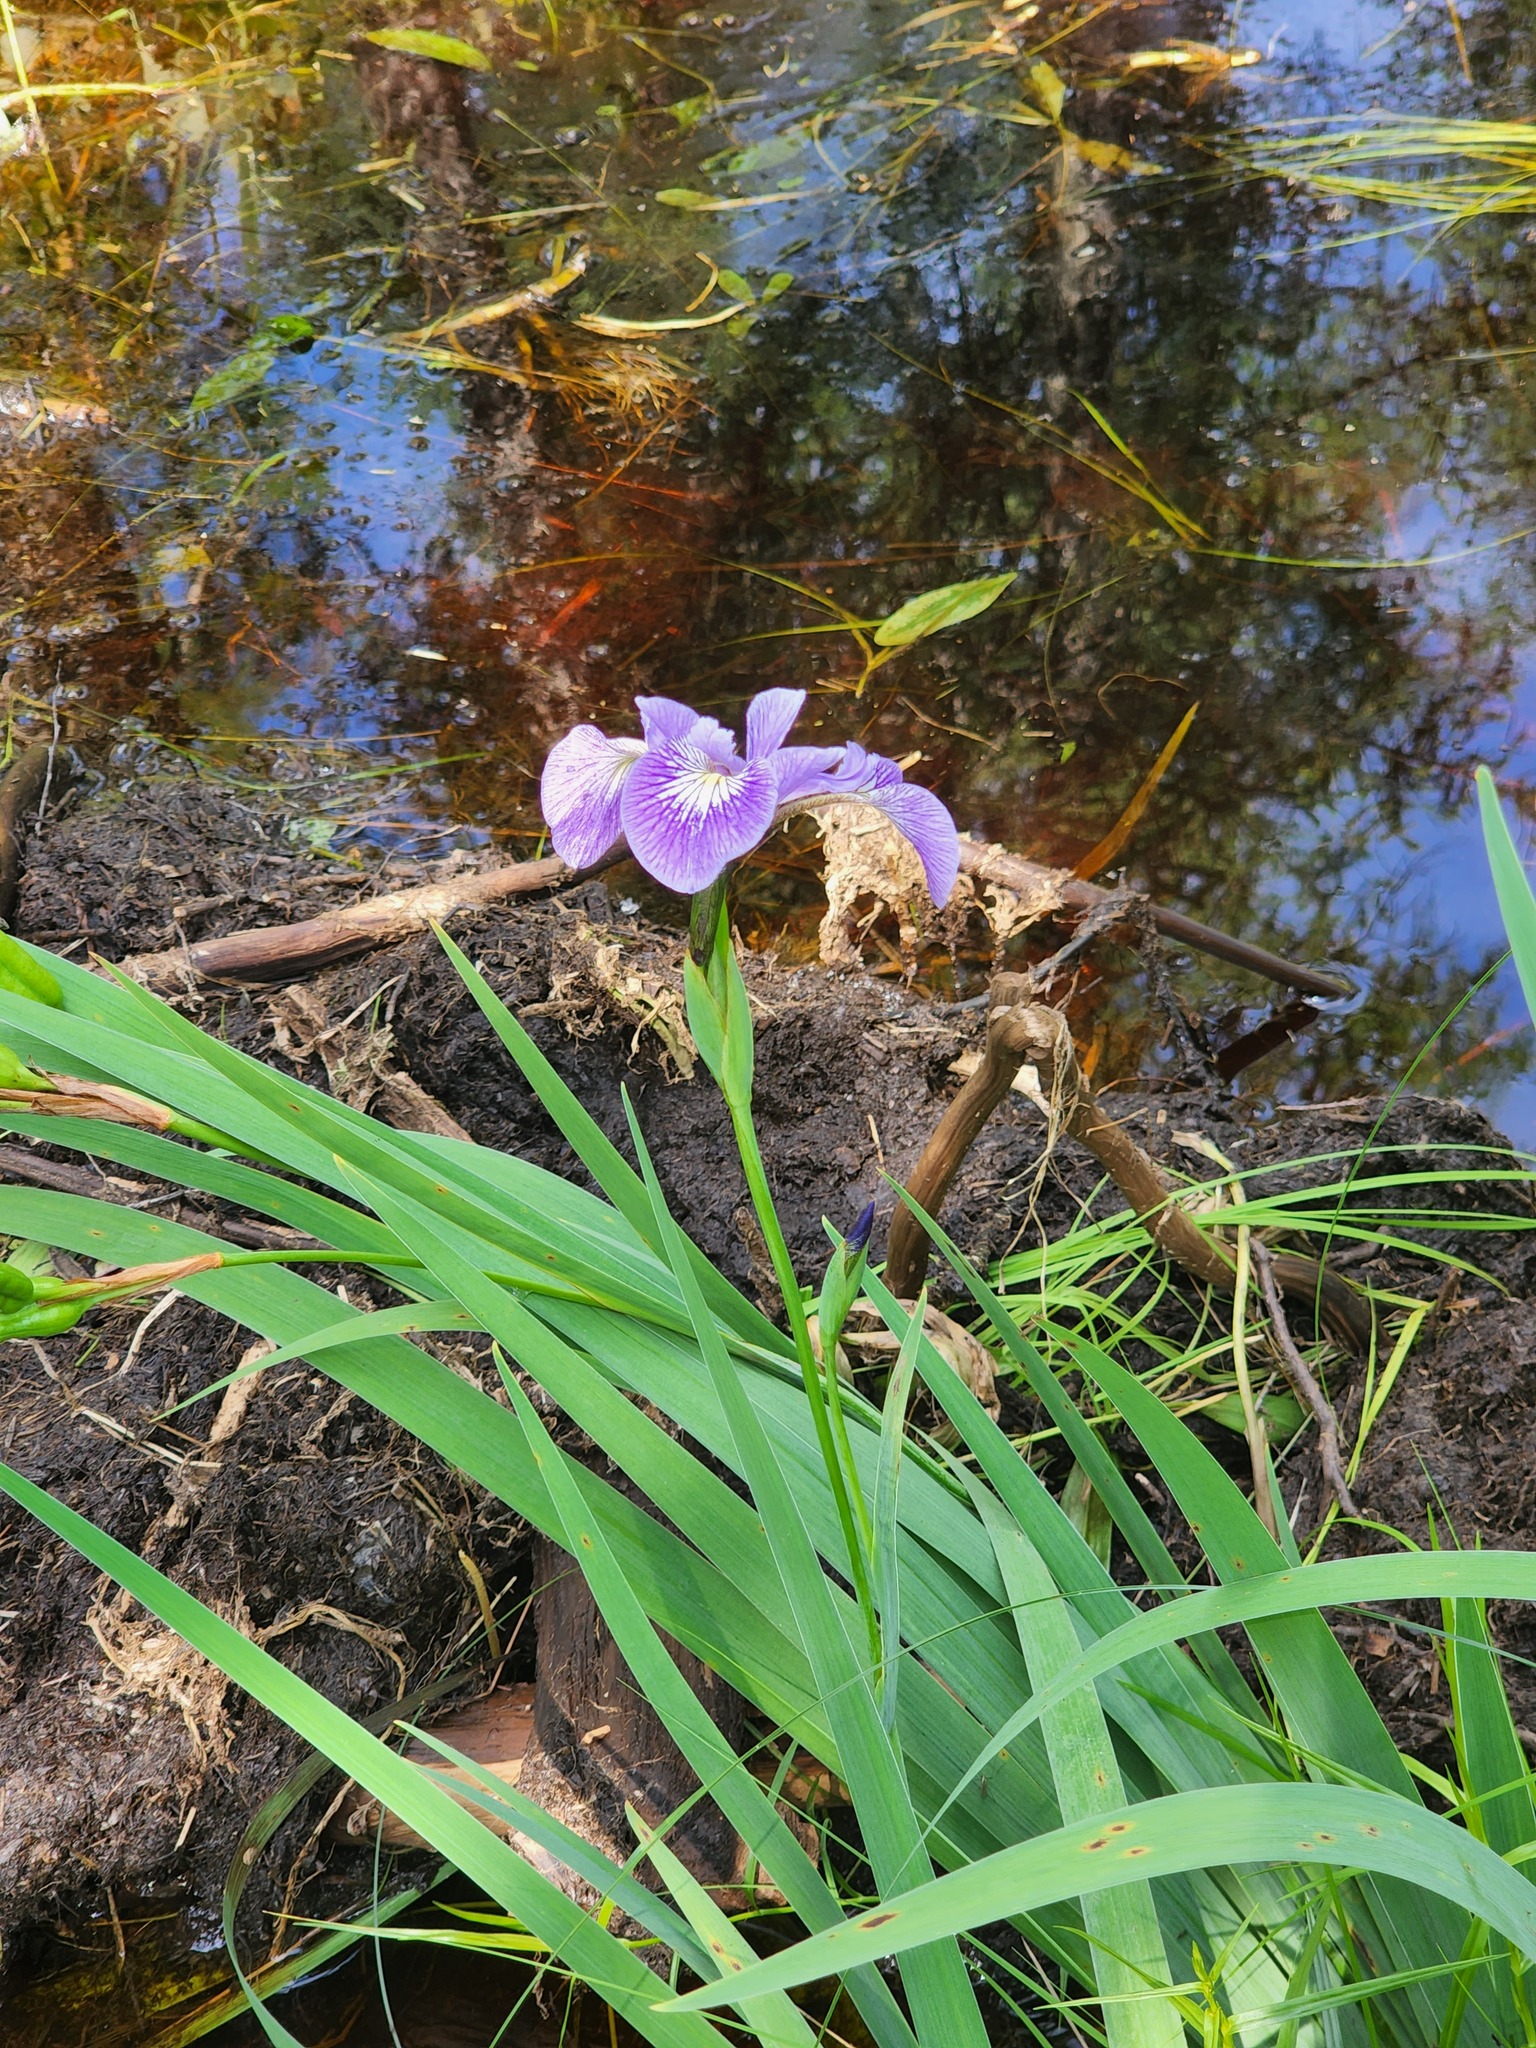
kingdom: Plantae
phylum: Tracheophyta
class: Liliopsida
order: Asparagales
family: Iridaceae
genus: Iris
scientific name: Iris versicolor
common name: Purple iris
